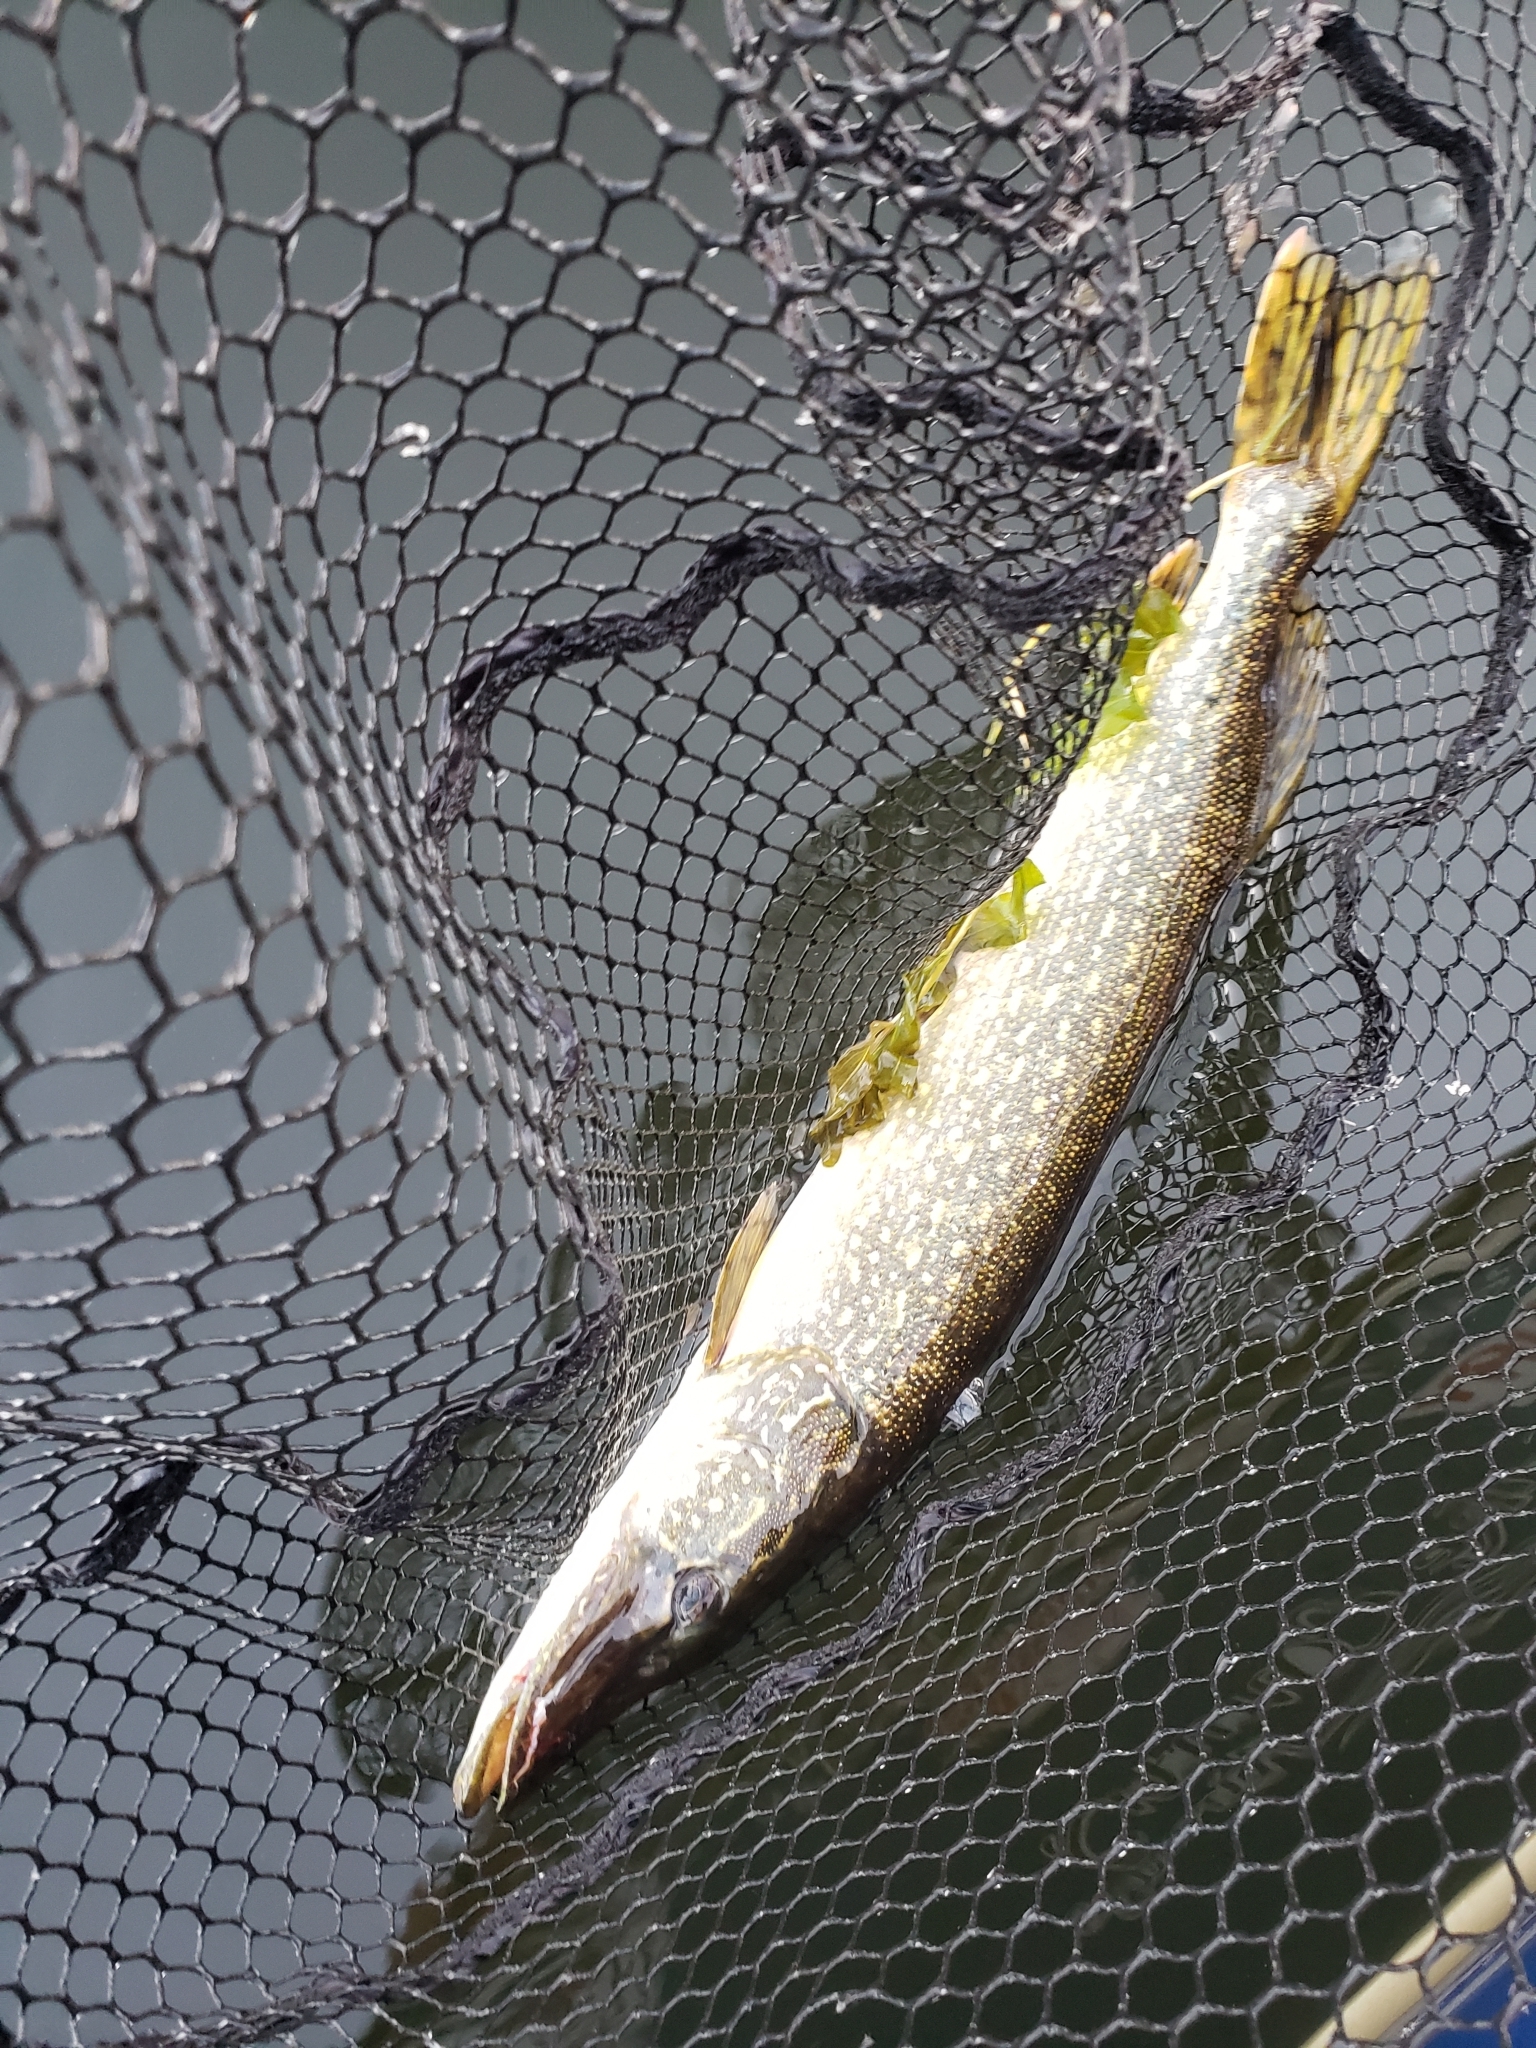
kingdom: Animalia
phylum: Chordata
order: Esociformes
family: Esocidae
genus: Esox
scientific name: Esox lucius
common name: Northern pike
